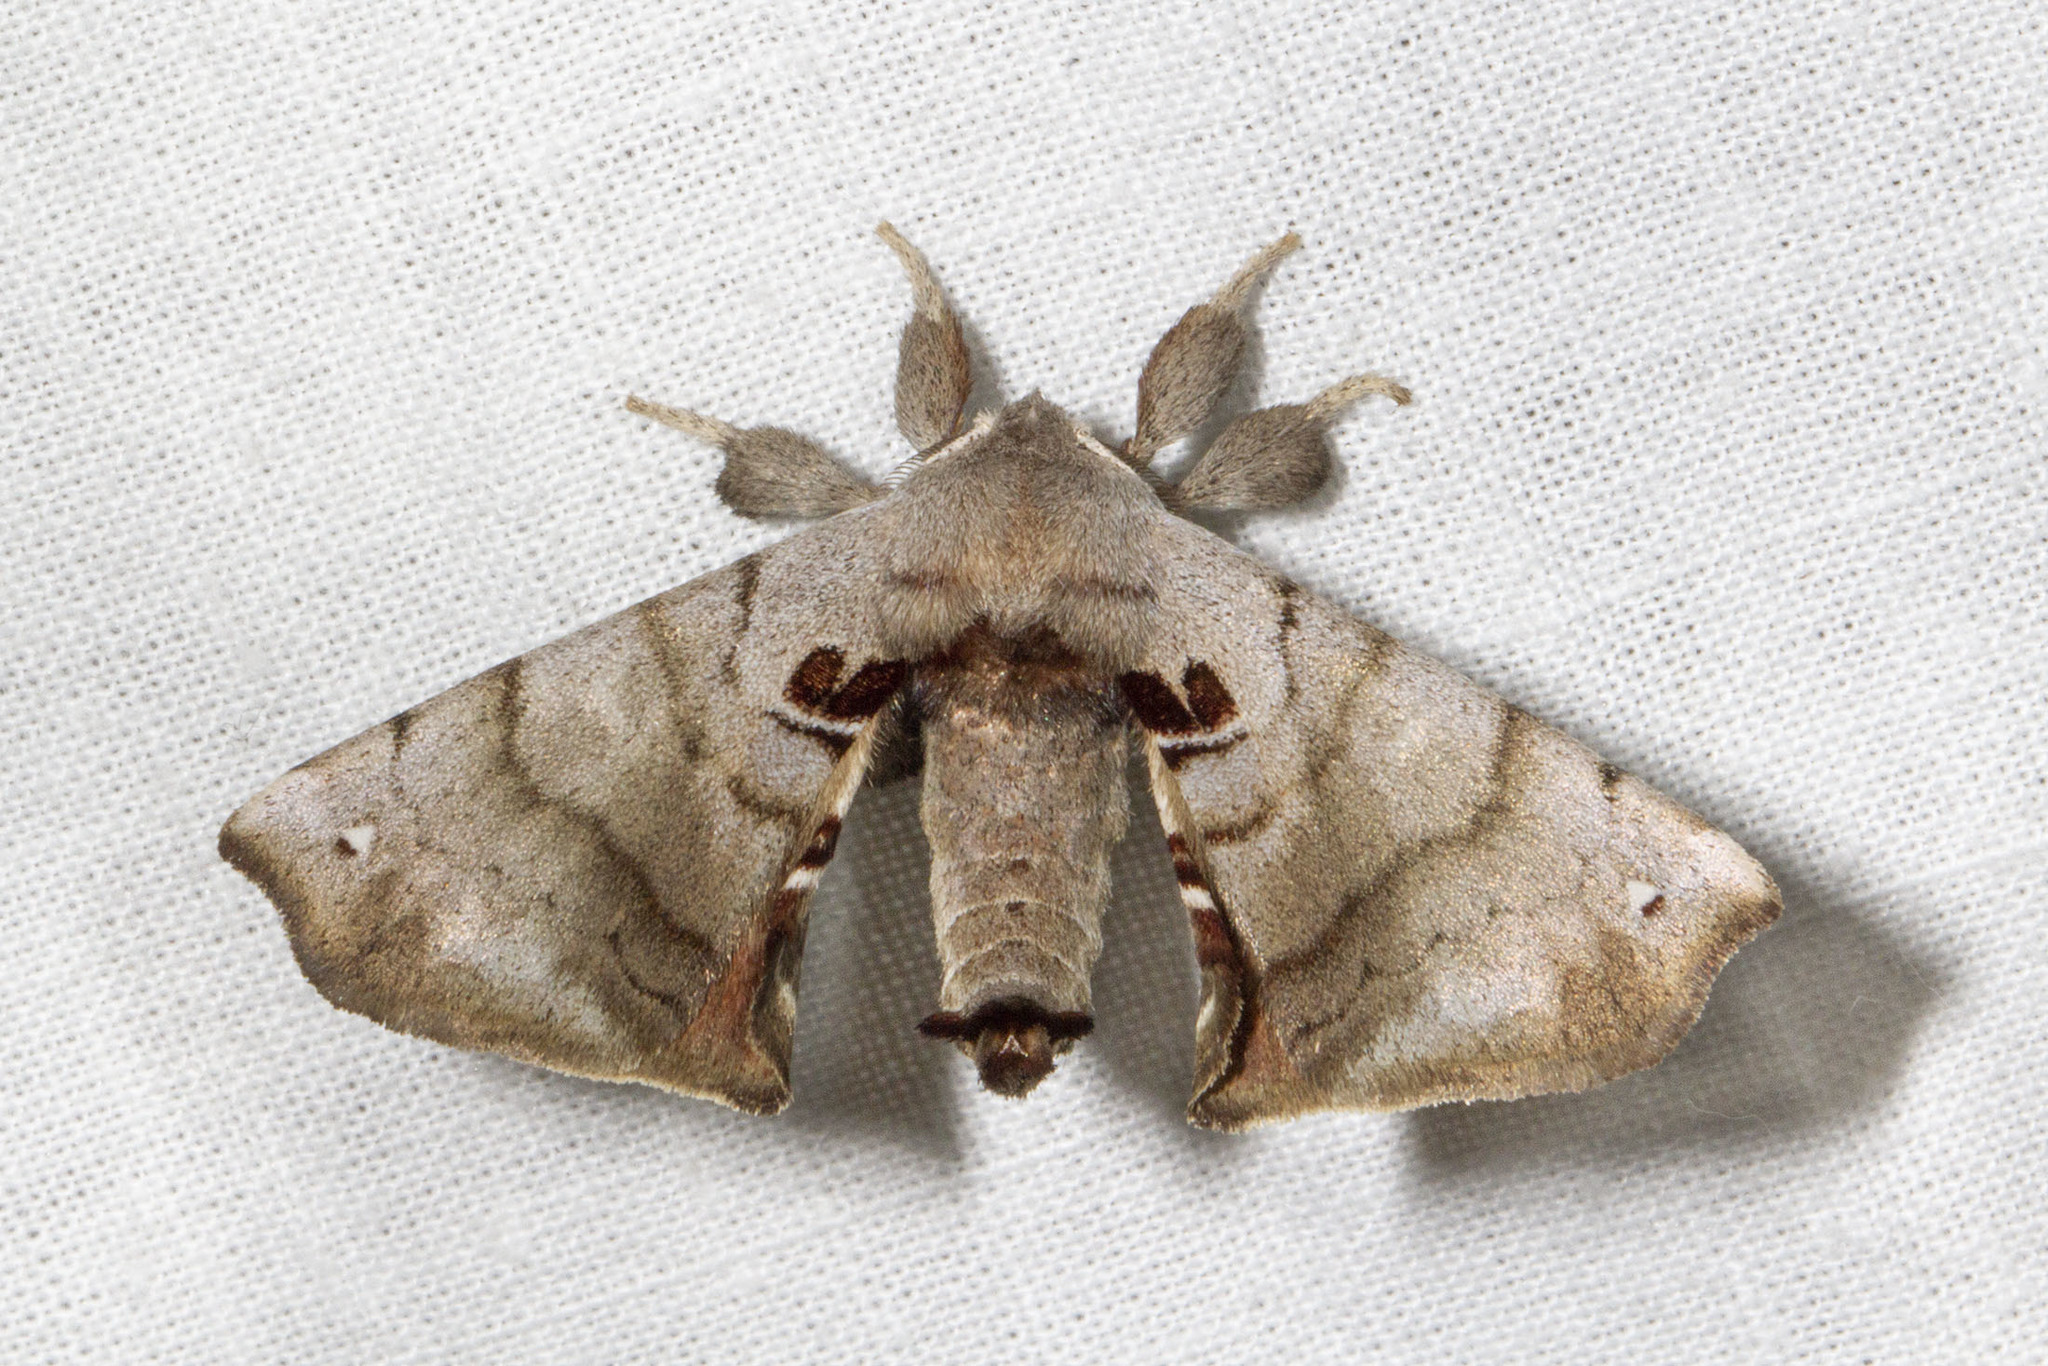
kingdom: Animalia
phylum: Arthropoda
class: Insecta
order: Lepidoptera
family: Apatelodidae
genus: Hygrochroa
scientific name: Hygrochroa Apatelodes torrefacta
